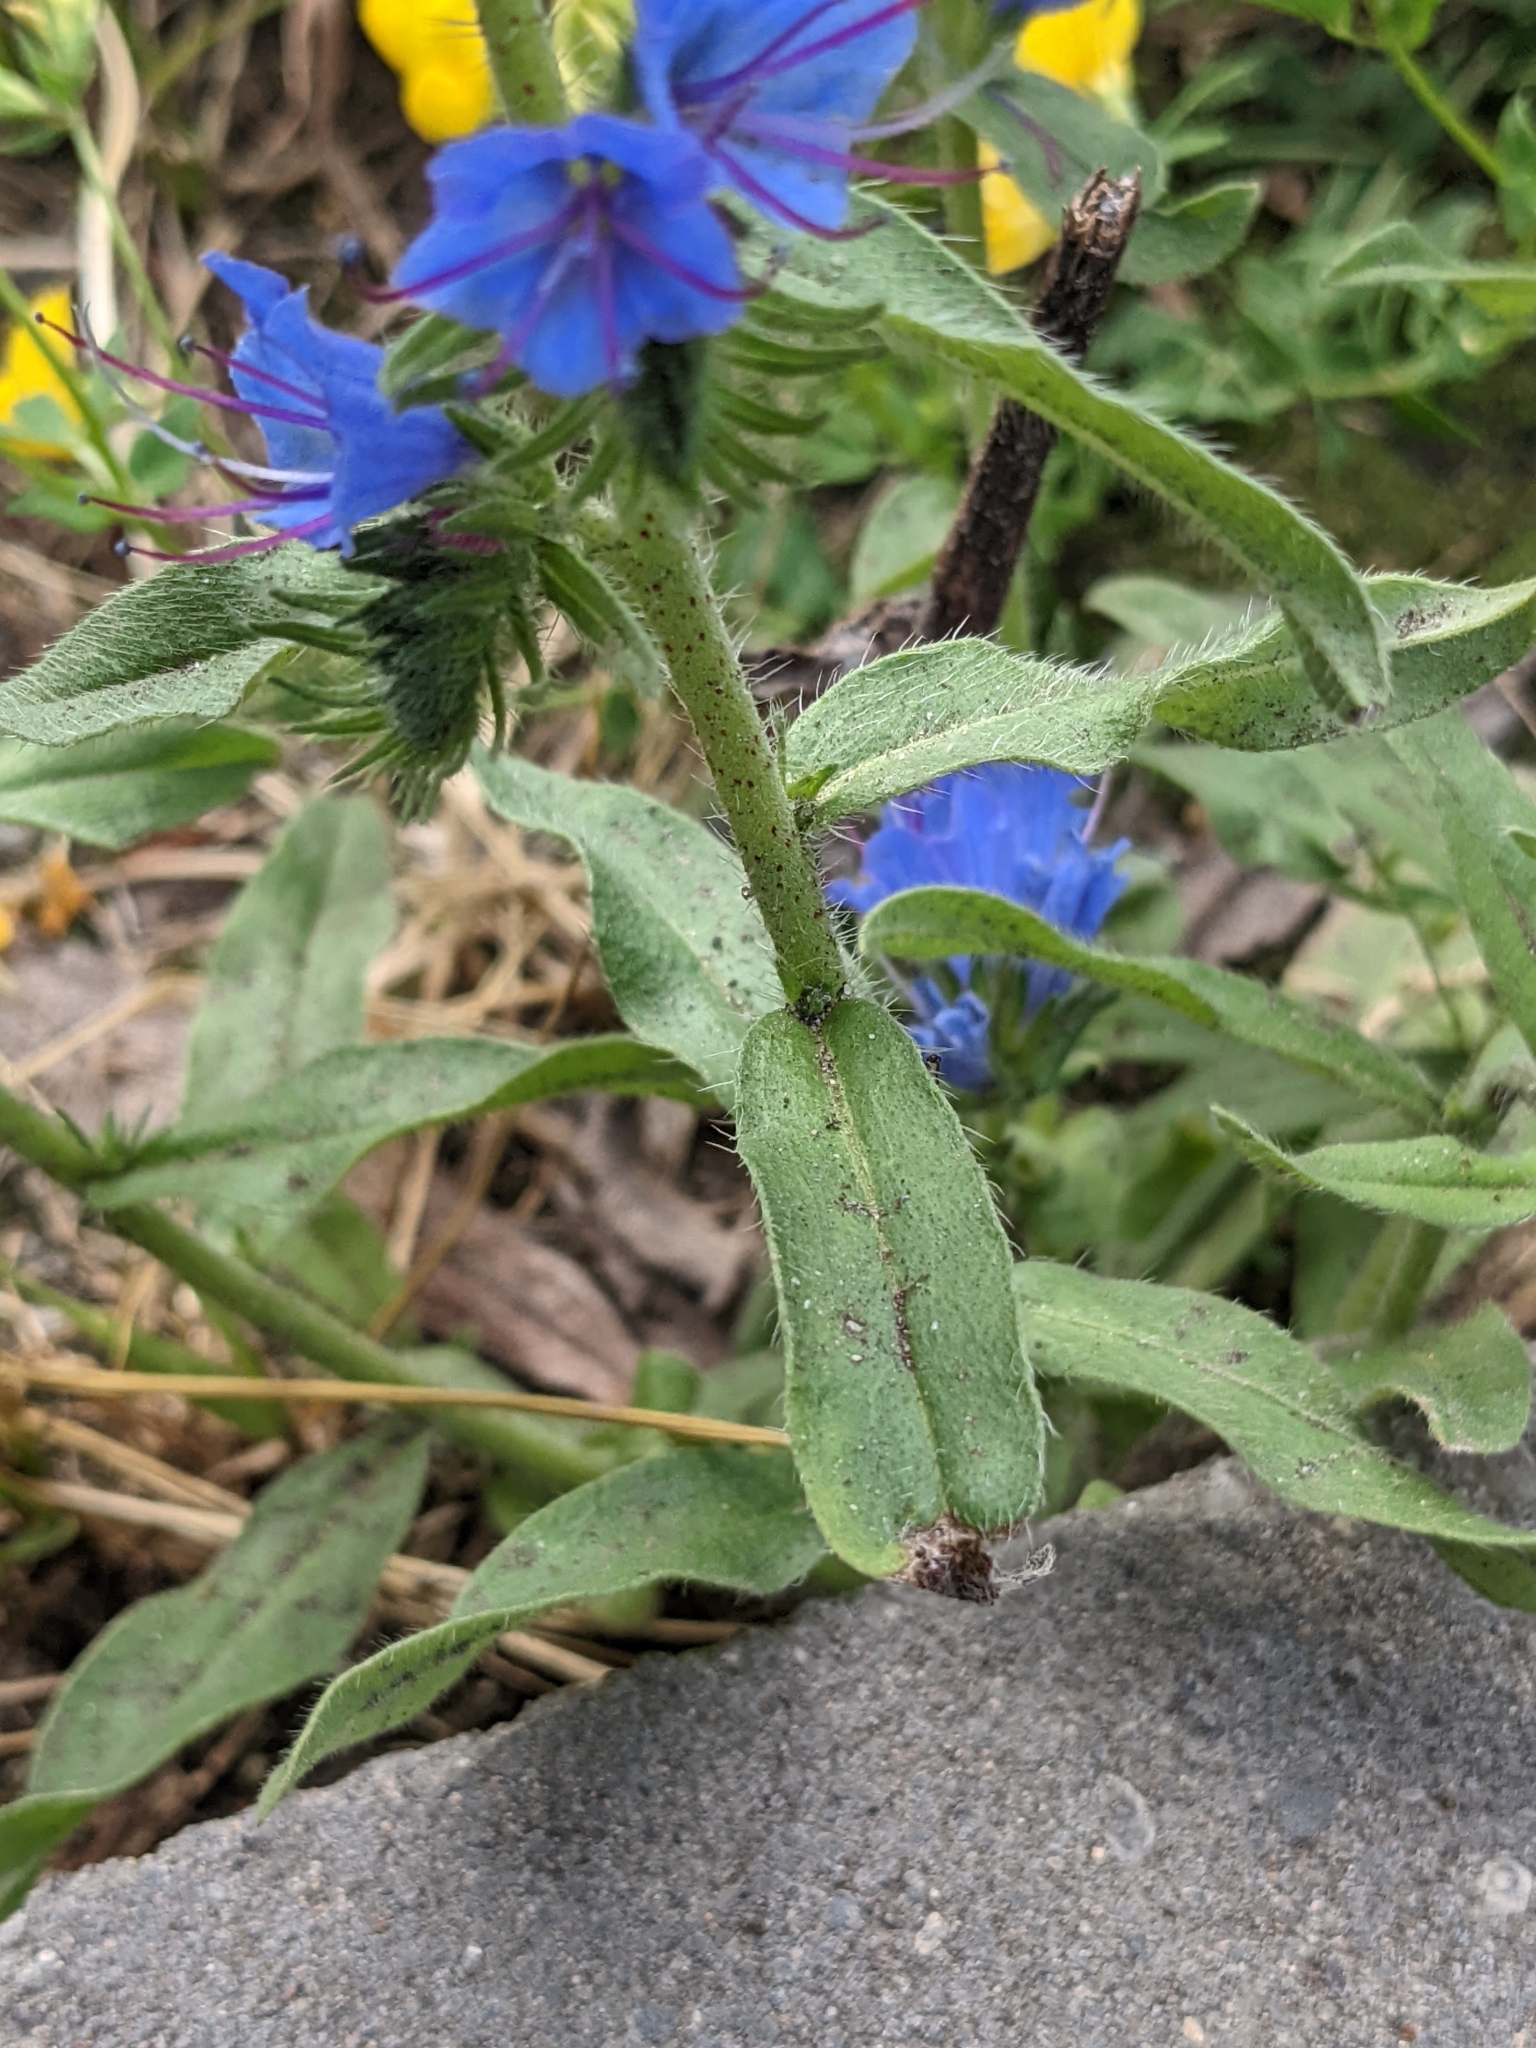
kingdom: Plantae
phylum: Tracheophyta
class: Magnoliopsida
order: Boraginales
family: Boraginaceae
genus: Echium
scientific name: Echium vulgare
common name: Common viper's bugloss
